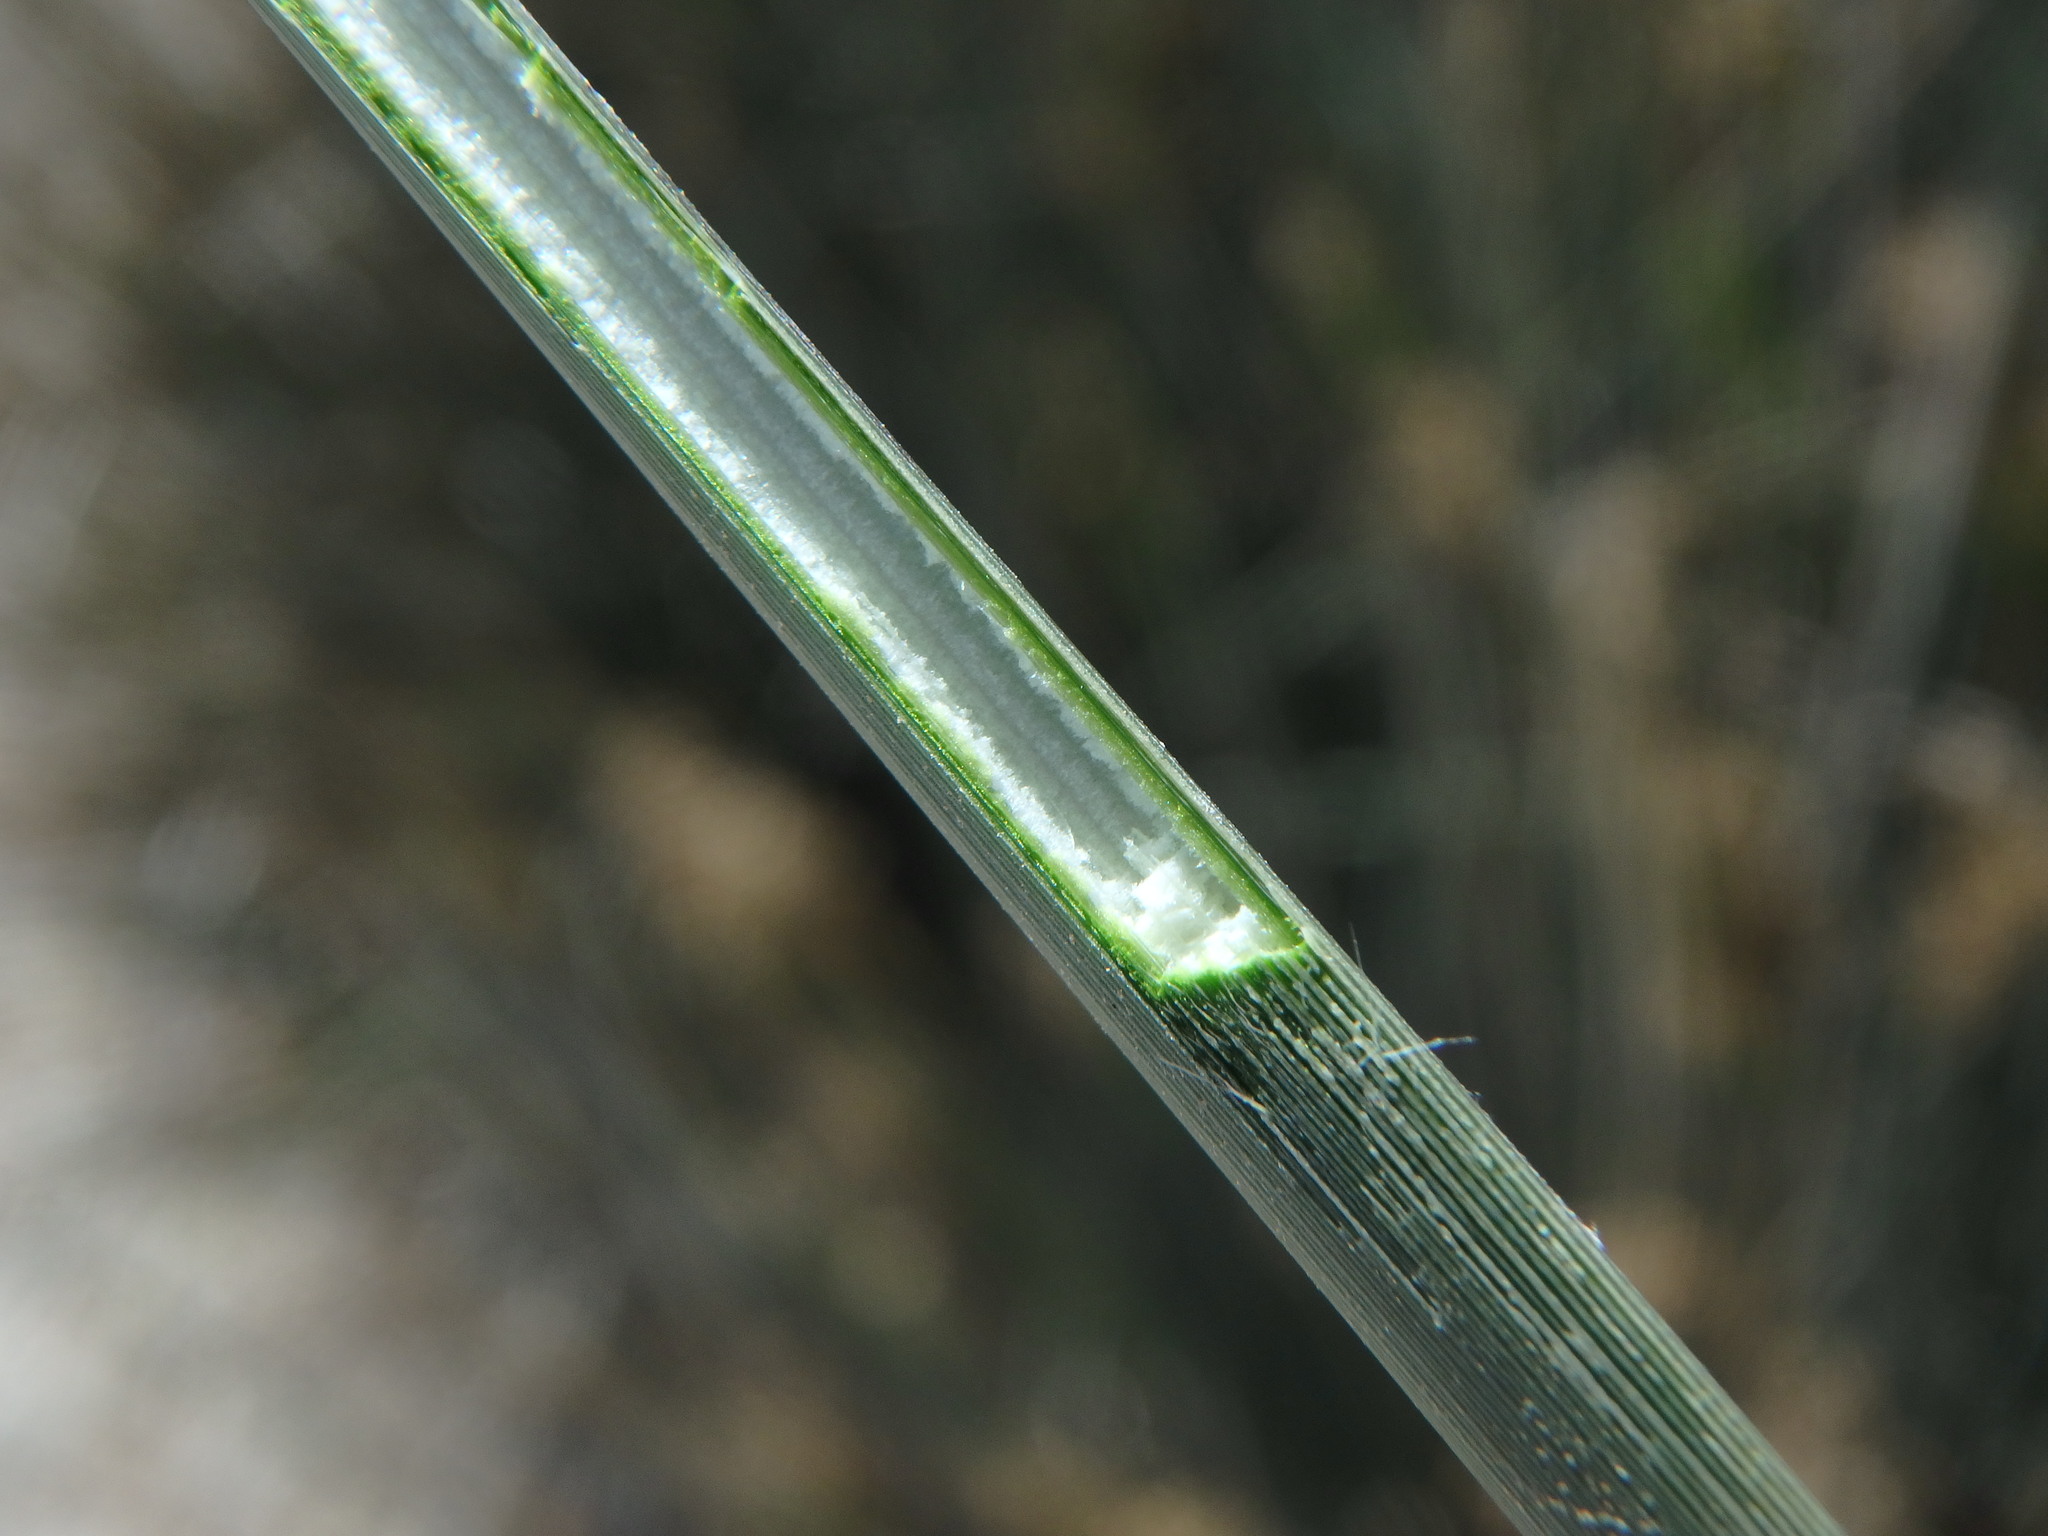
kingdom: Plantae
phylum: Tracheophyta
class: Liliopsida
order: Poales
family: Juncaceae
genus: Juncus
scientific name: Juncus acutus
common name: Sharp rush
